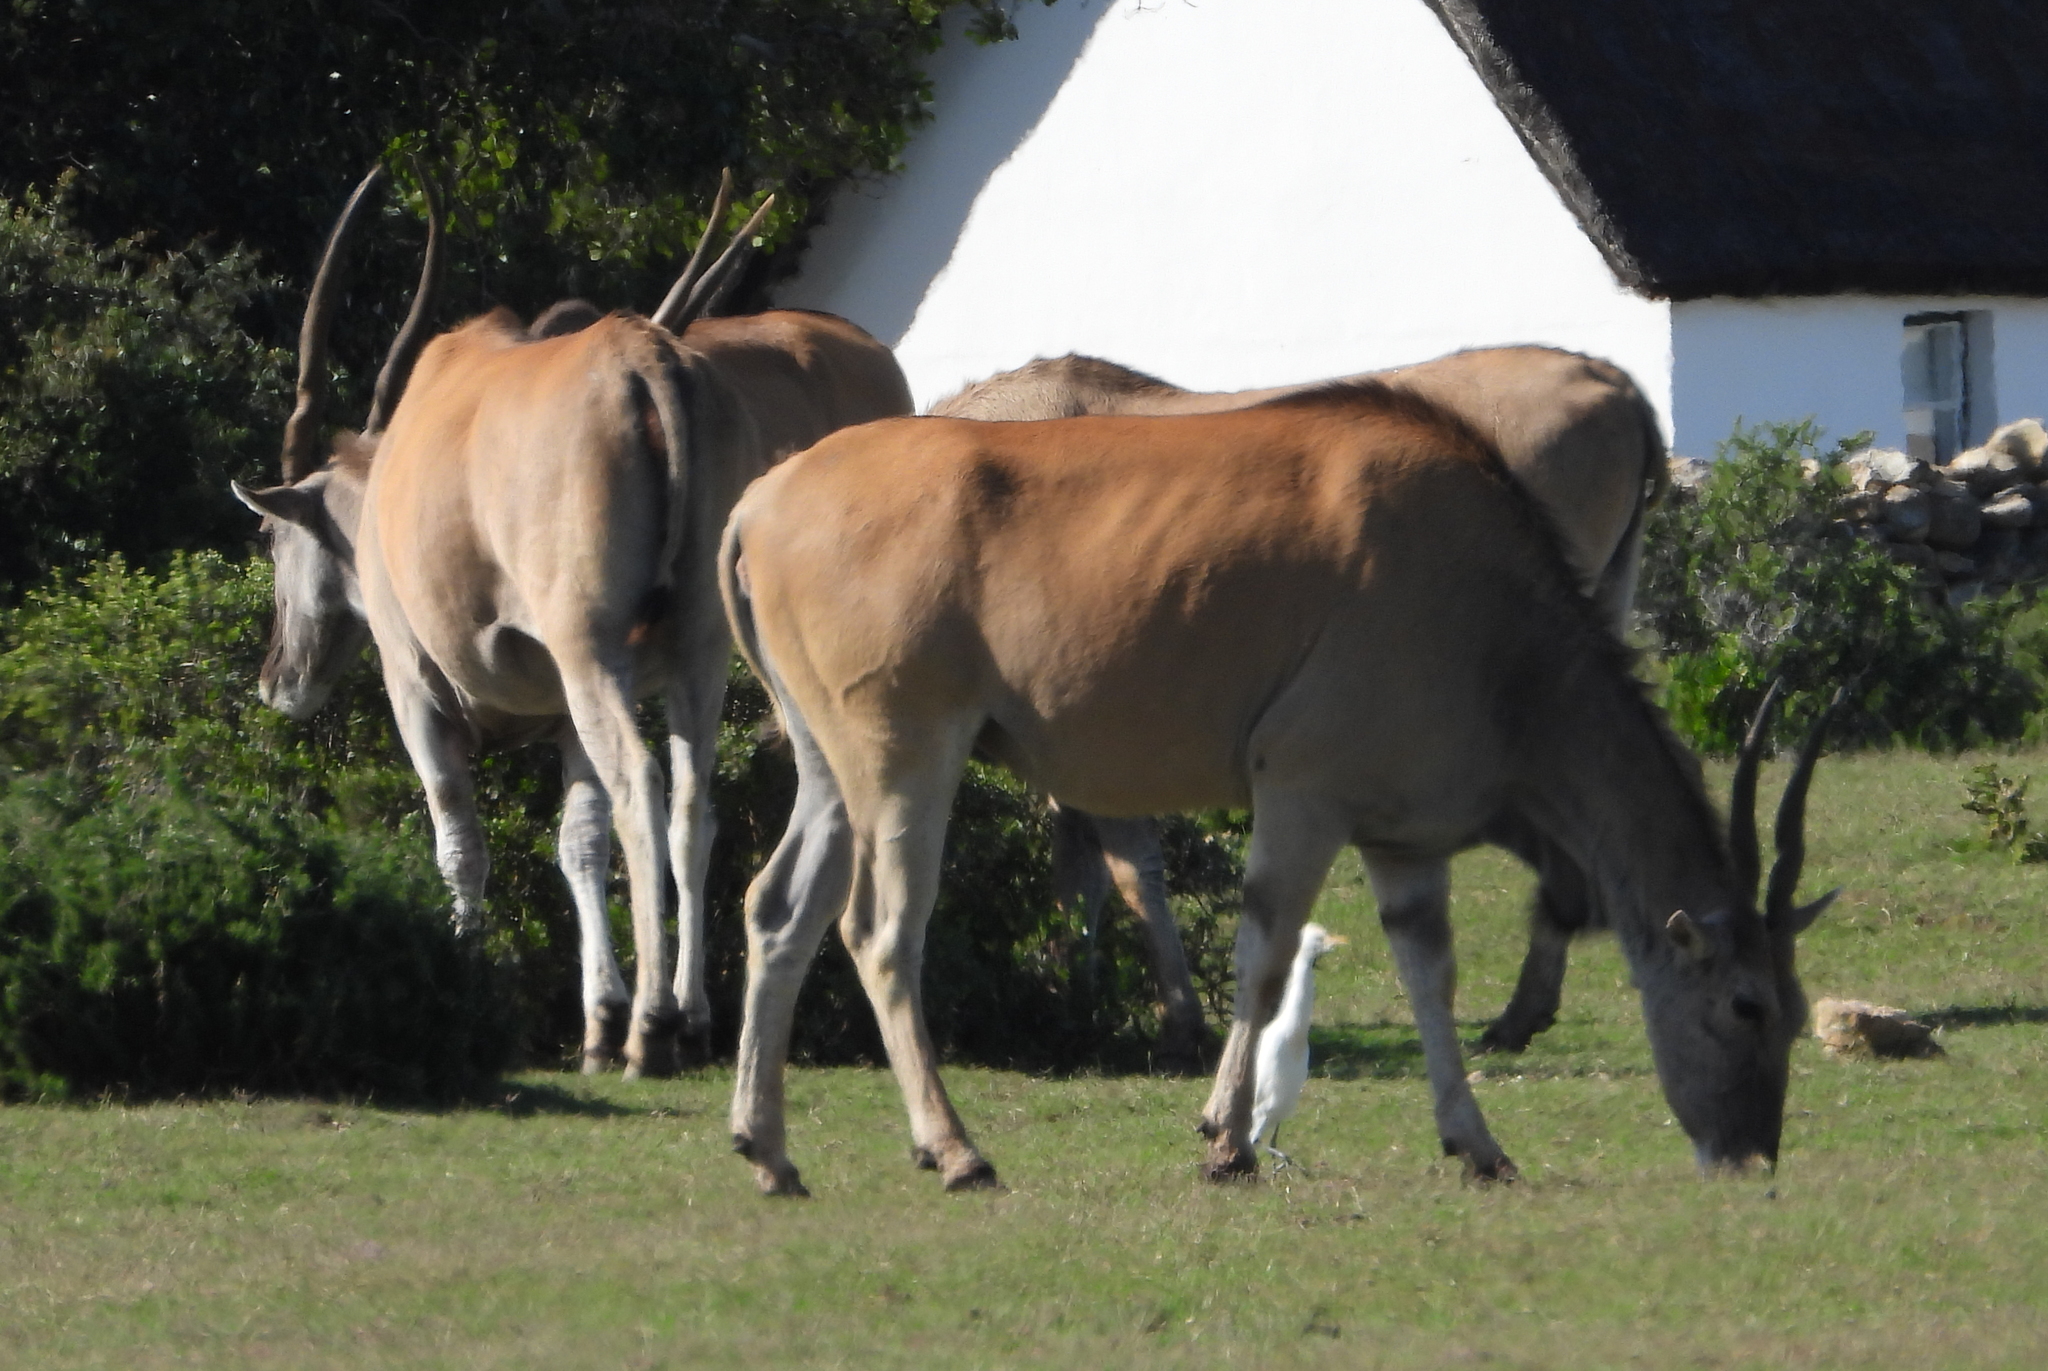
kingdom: Animalia
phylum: Chordata
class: Mammalia
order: Artiodactyla
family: Bovidae
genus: Taurotragus
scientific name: Taurotragus oryx
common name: Common eland
